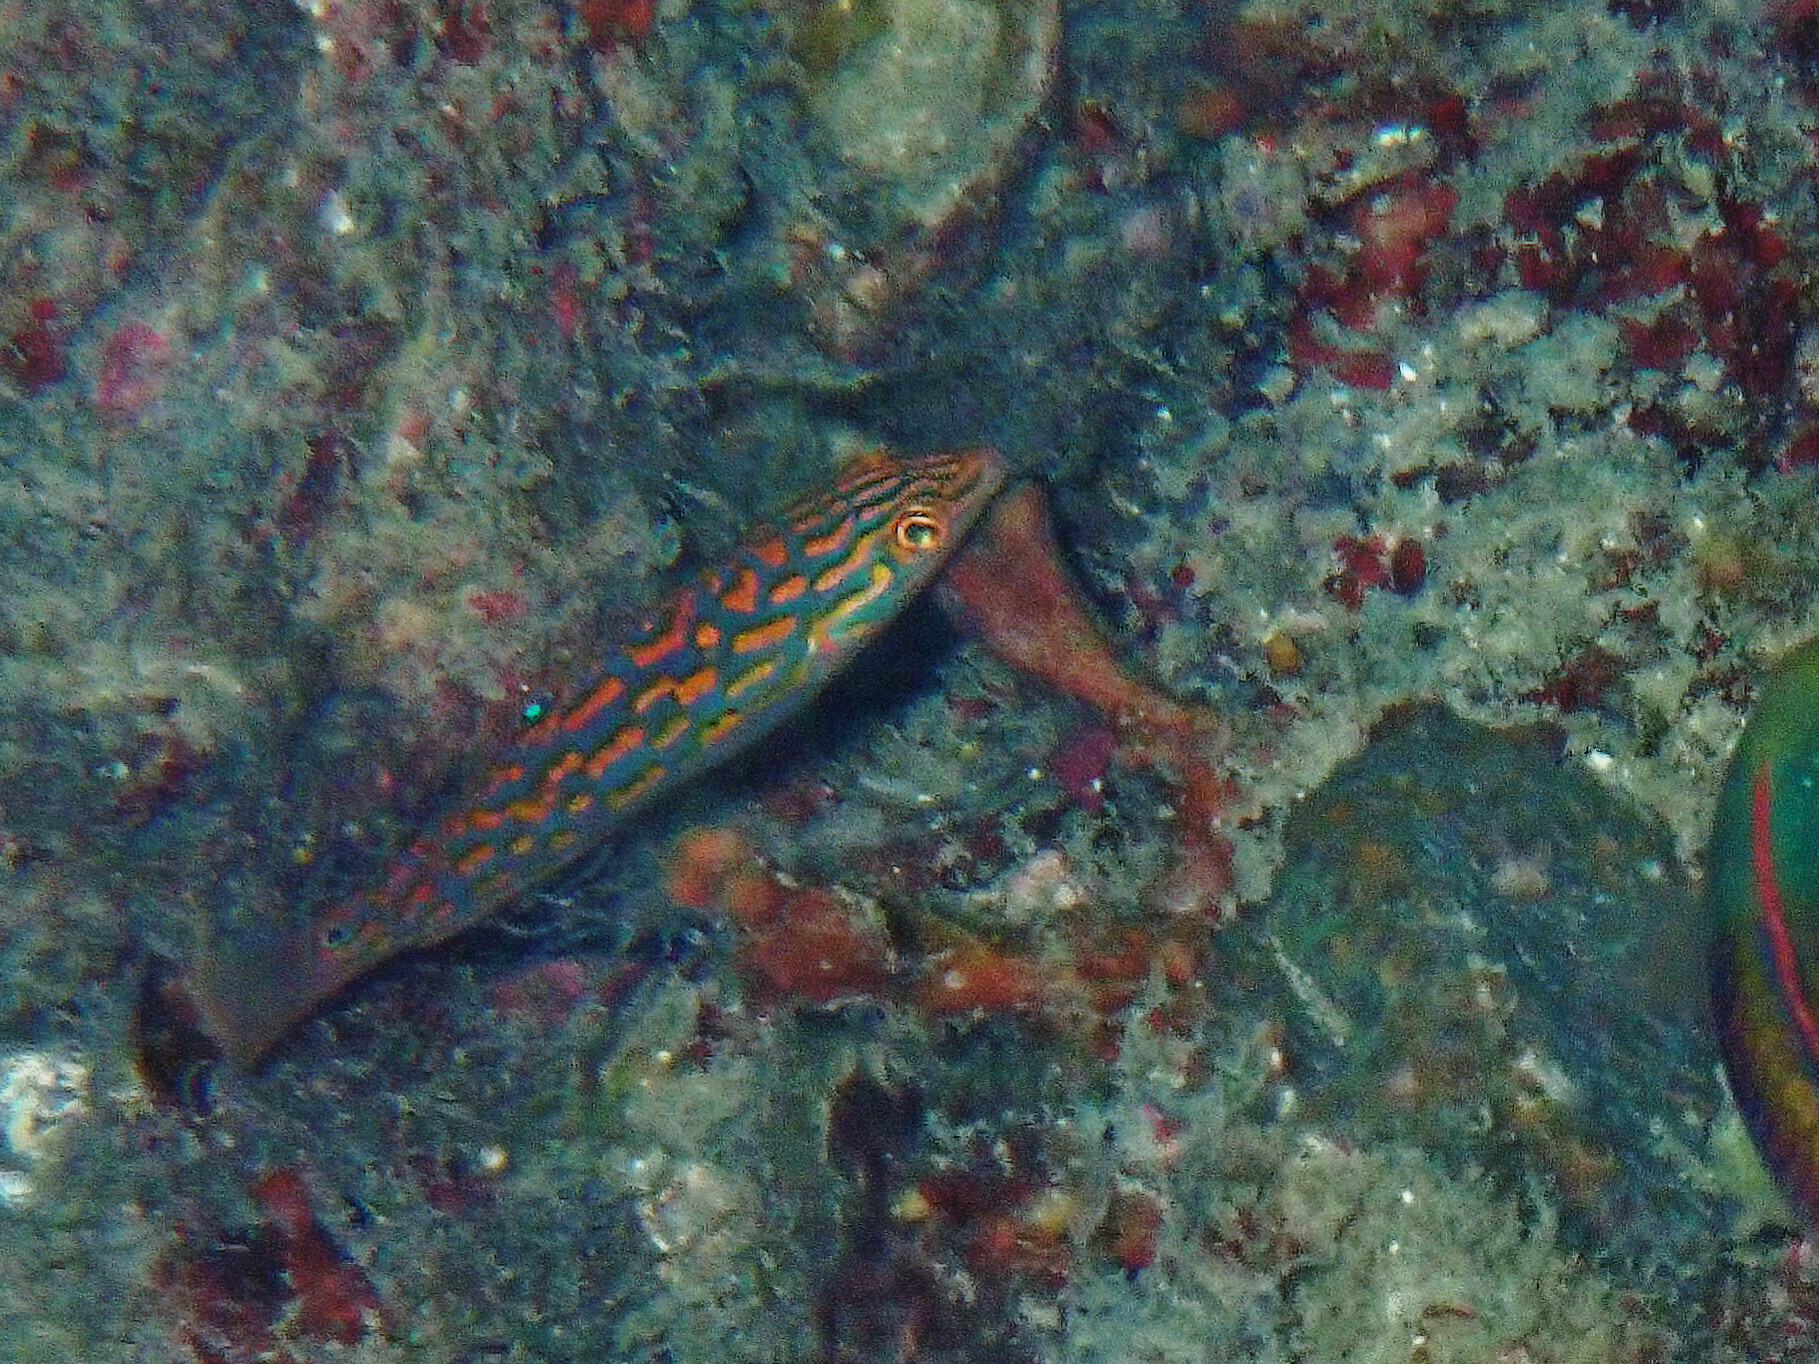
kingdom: Animalia
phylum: Chordata
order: Perciformes
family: Labridae
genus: Halichoeres
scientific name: Halichoeres timorensis
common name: Timor wrasse
